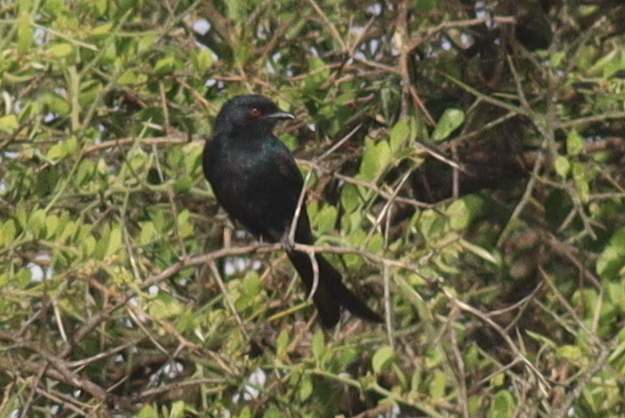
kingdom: Animalia
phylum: Chordata
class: Aves
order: Passeriformes
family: Dicruridae
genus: Dicrurus
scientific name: Dicrurus adsimilis
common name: Fork-tailed drongo
